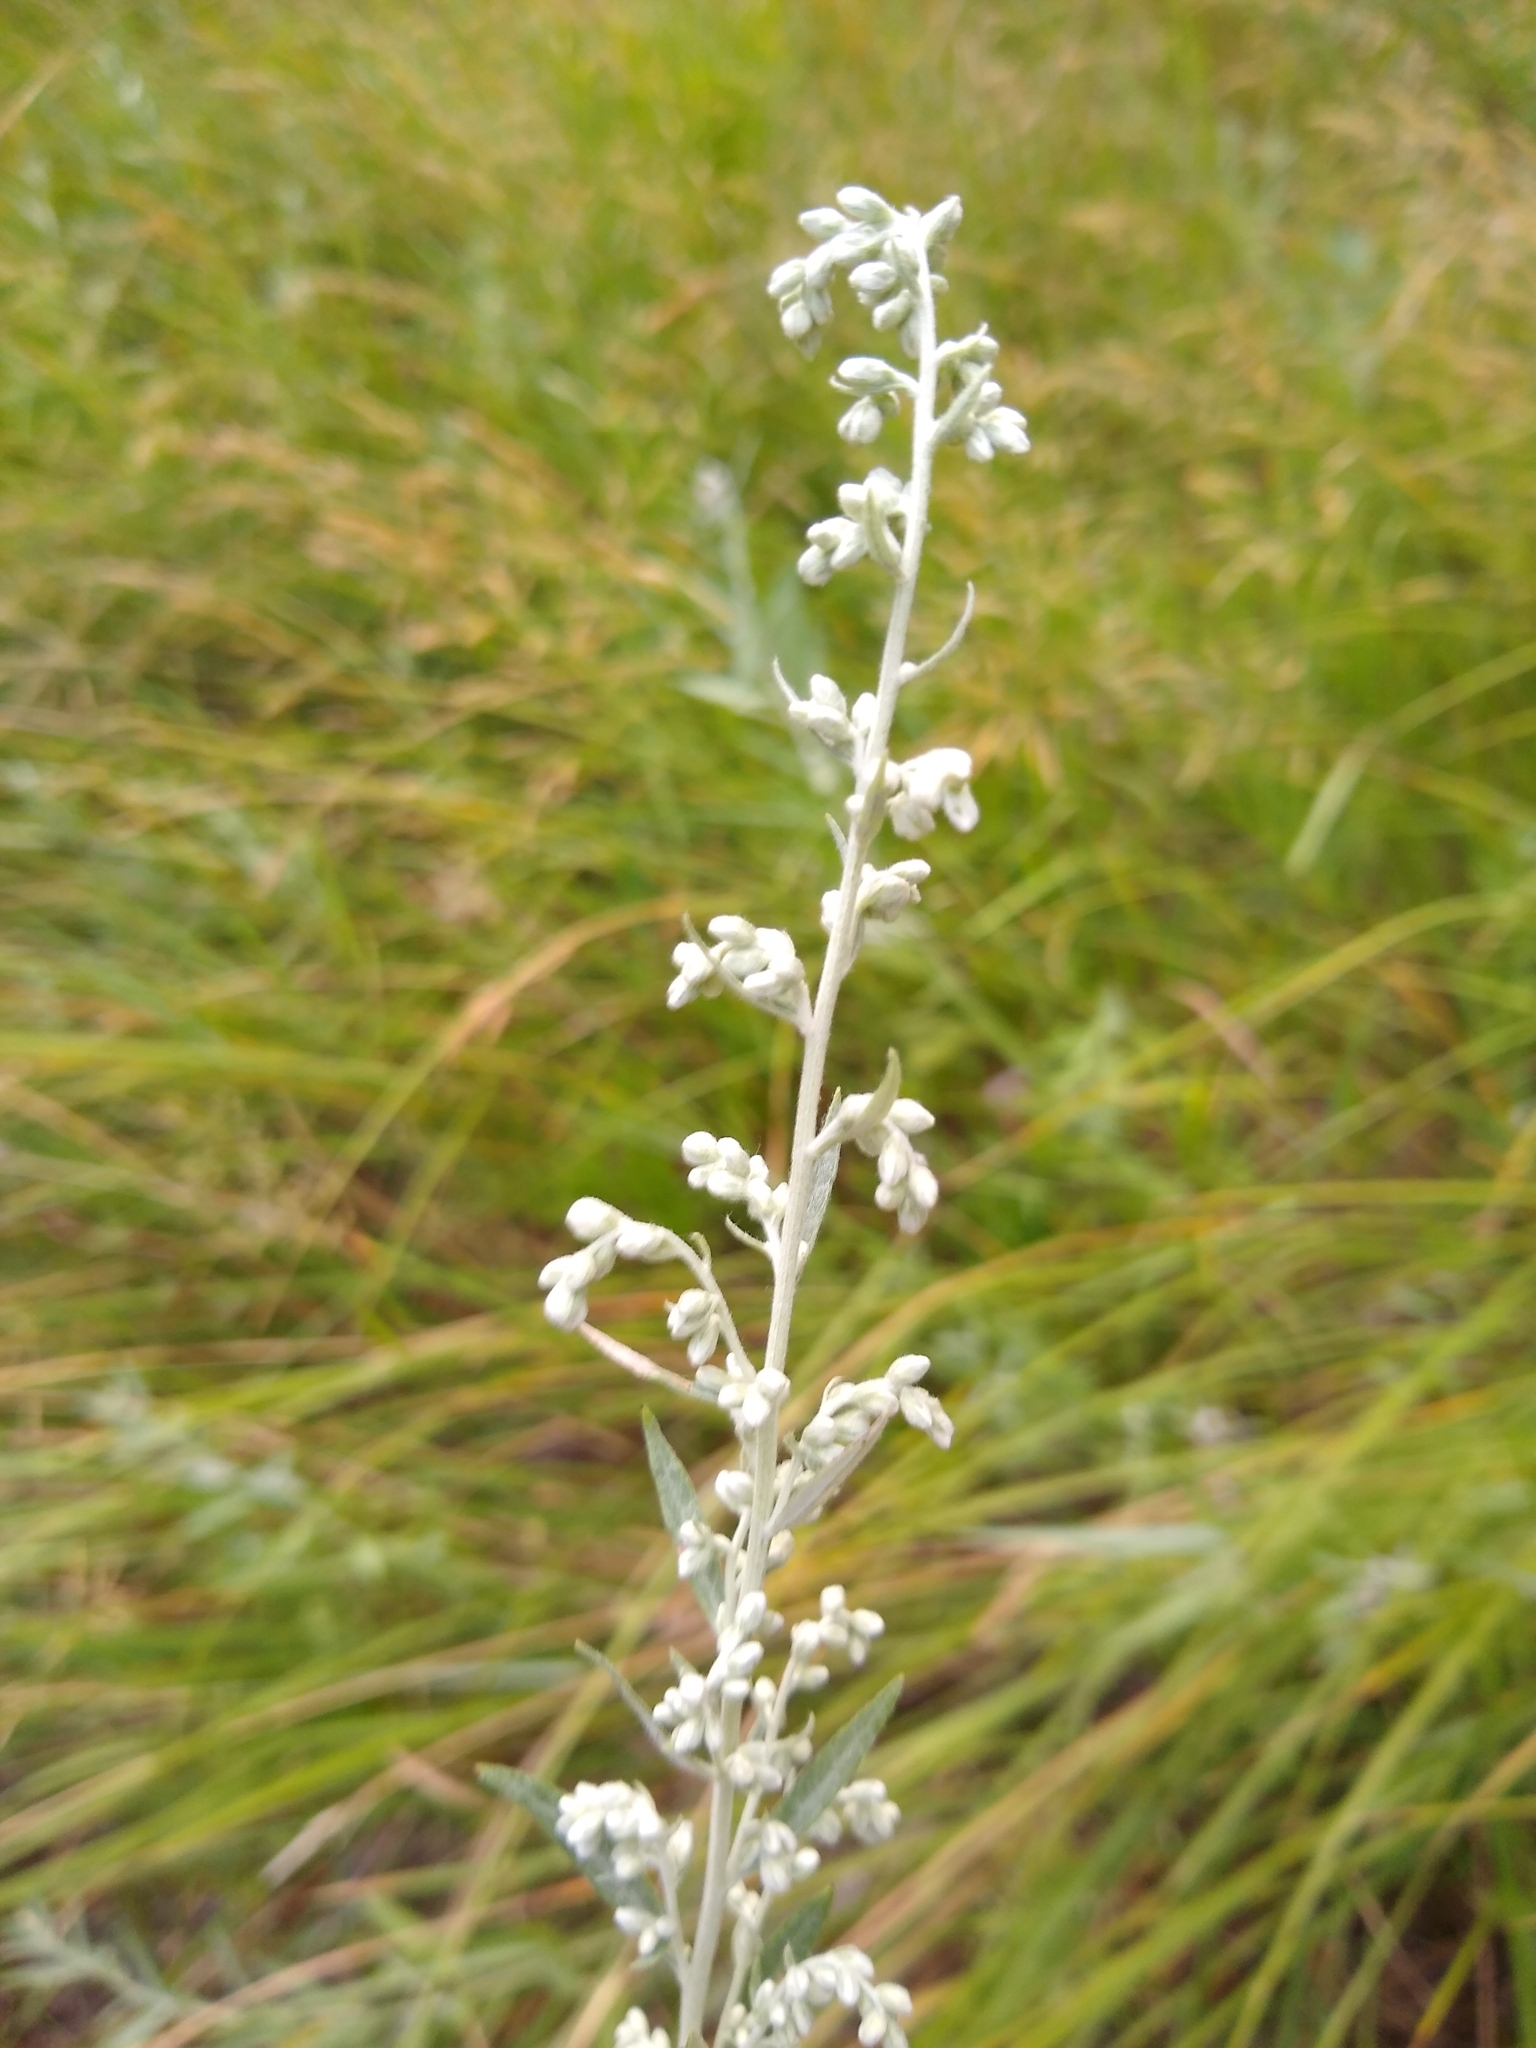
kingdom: Plantae
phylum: Tracheophyta
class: Magnoliopsida
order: Asterales
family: Asteraceae
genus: Artemisia
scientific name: Artemisia ludoviciana
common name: Western mugwort
